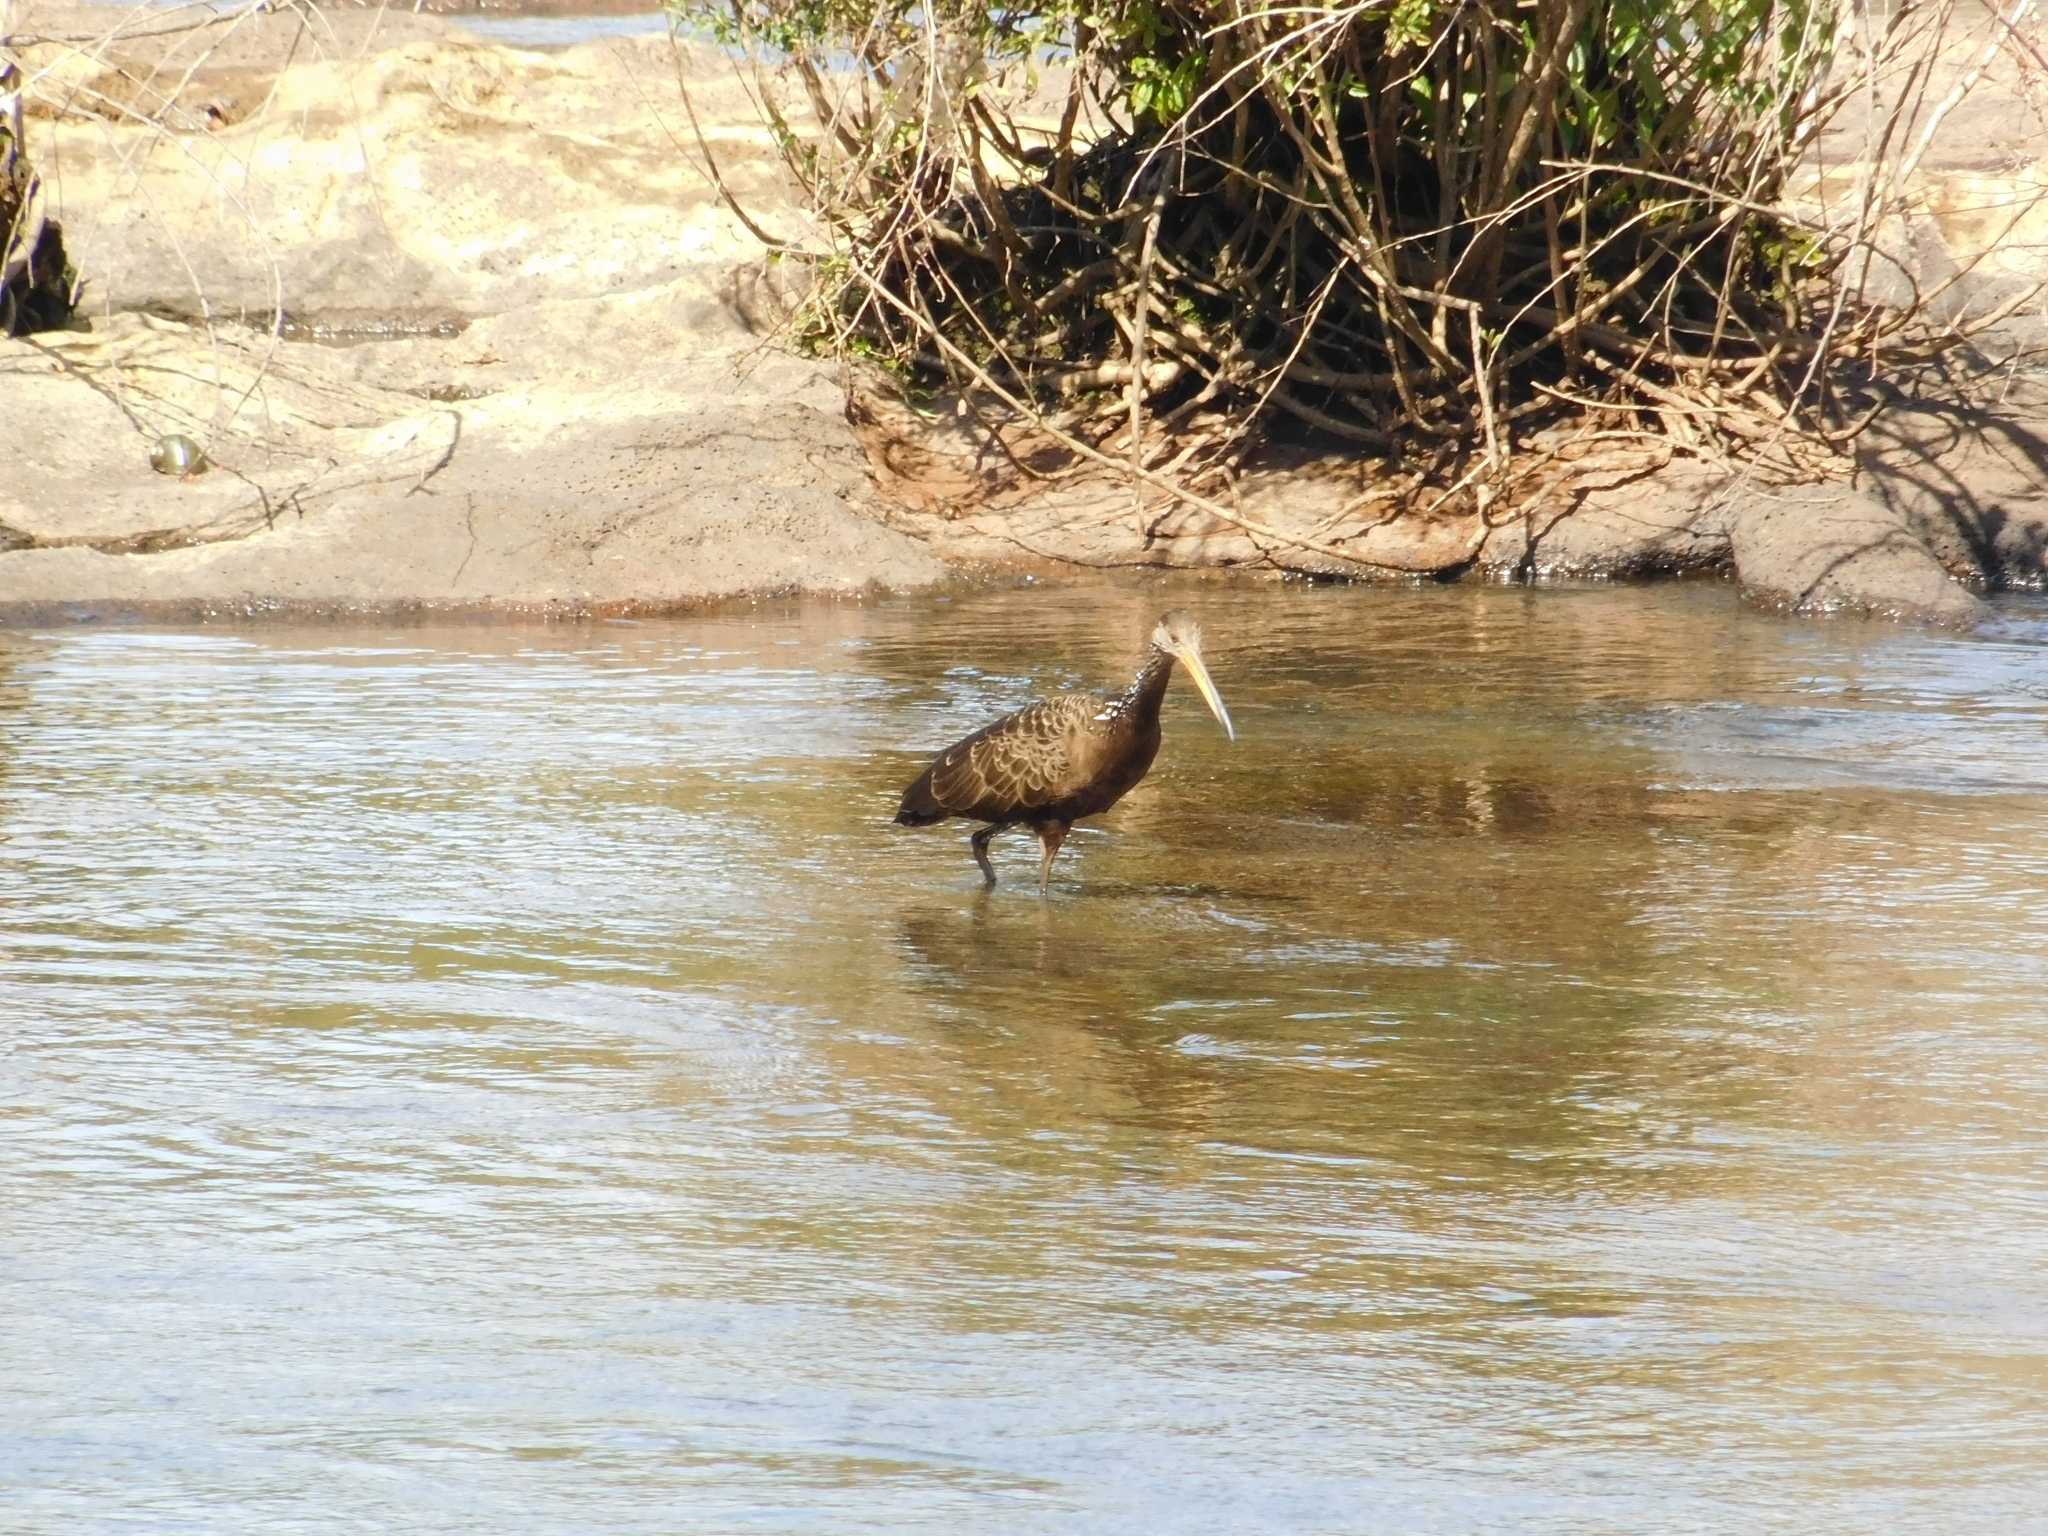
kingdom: Animalia
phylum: Chordata
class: Aves
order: Gruiformes
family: Aramidae
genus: Aramus
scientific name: Aramus guarauna
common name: Limpkin
